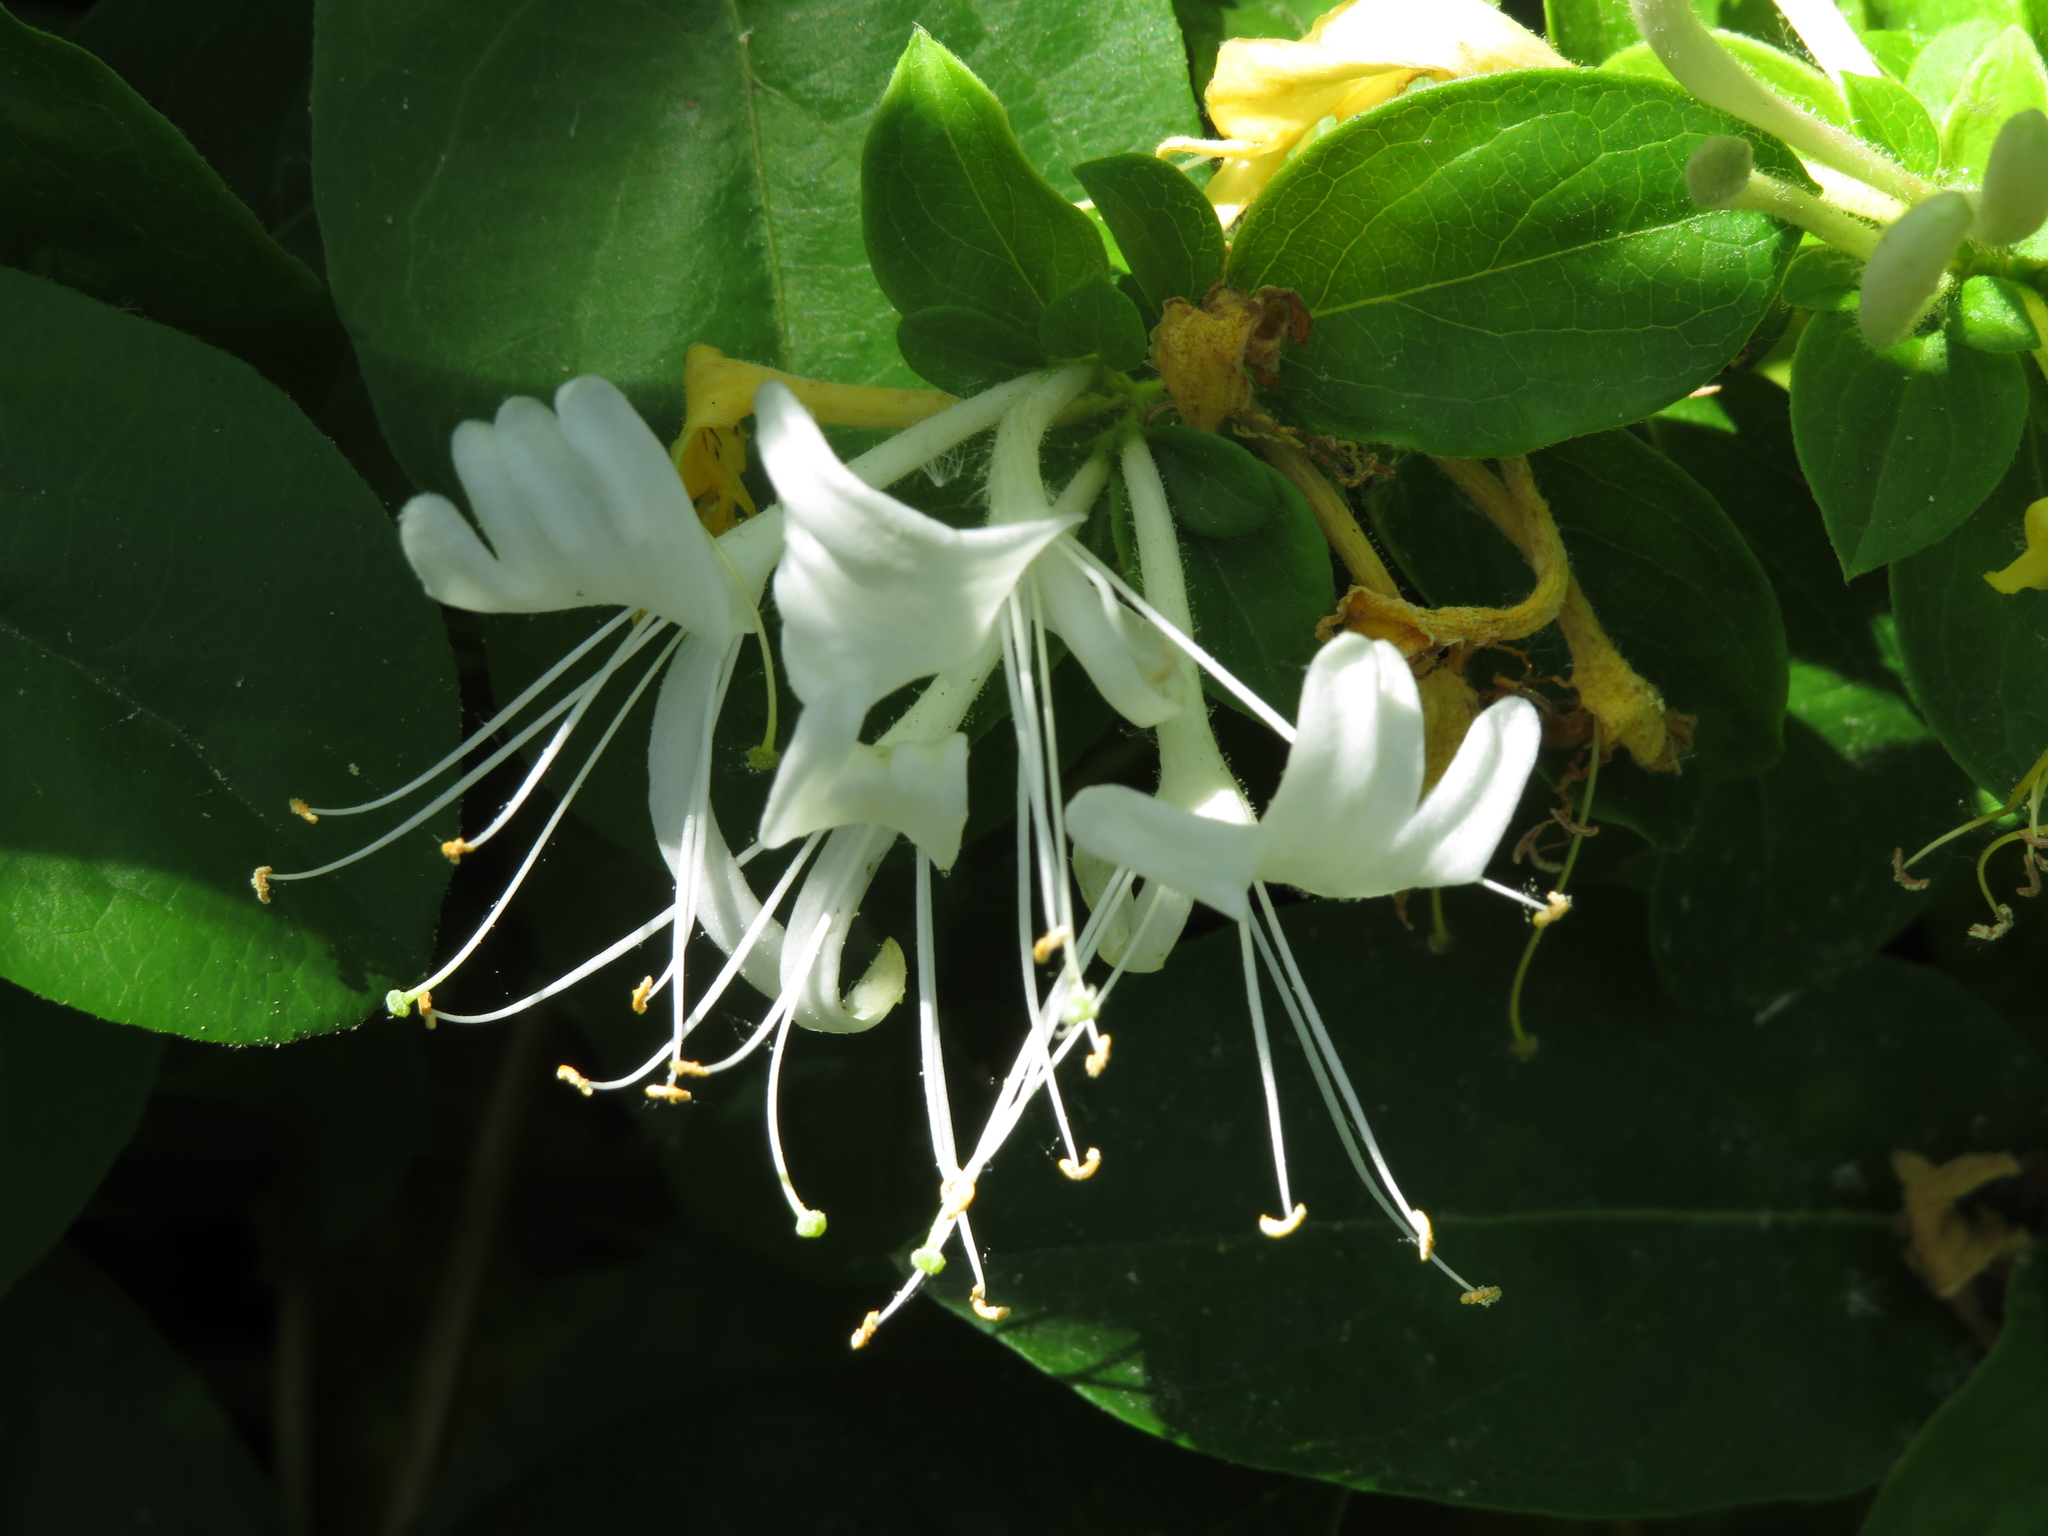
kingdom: Plantae
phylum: Tracheophyta
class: Magnoliopsida
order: Dipsacales
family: Caprifoliaceae
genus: Lonicera
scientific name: Lonicera japonica
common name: Japanese honeysuckle
